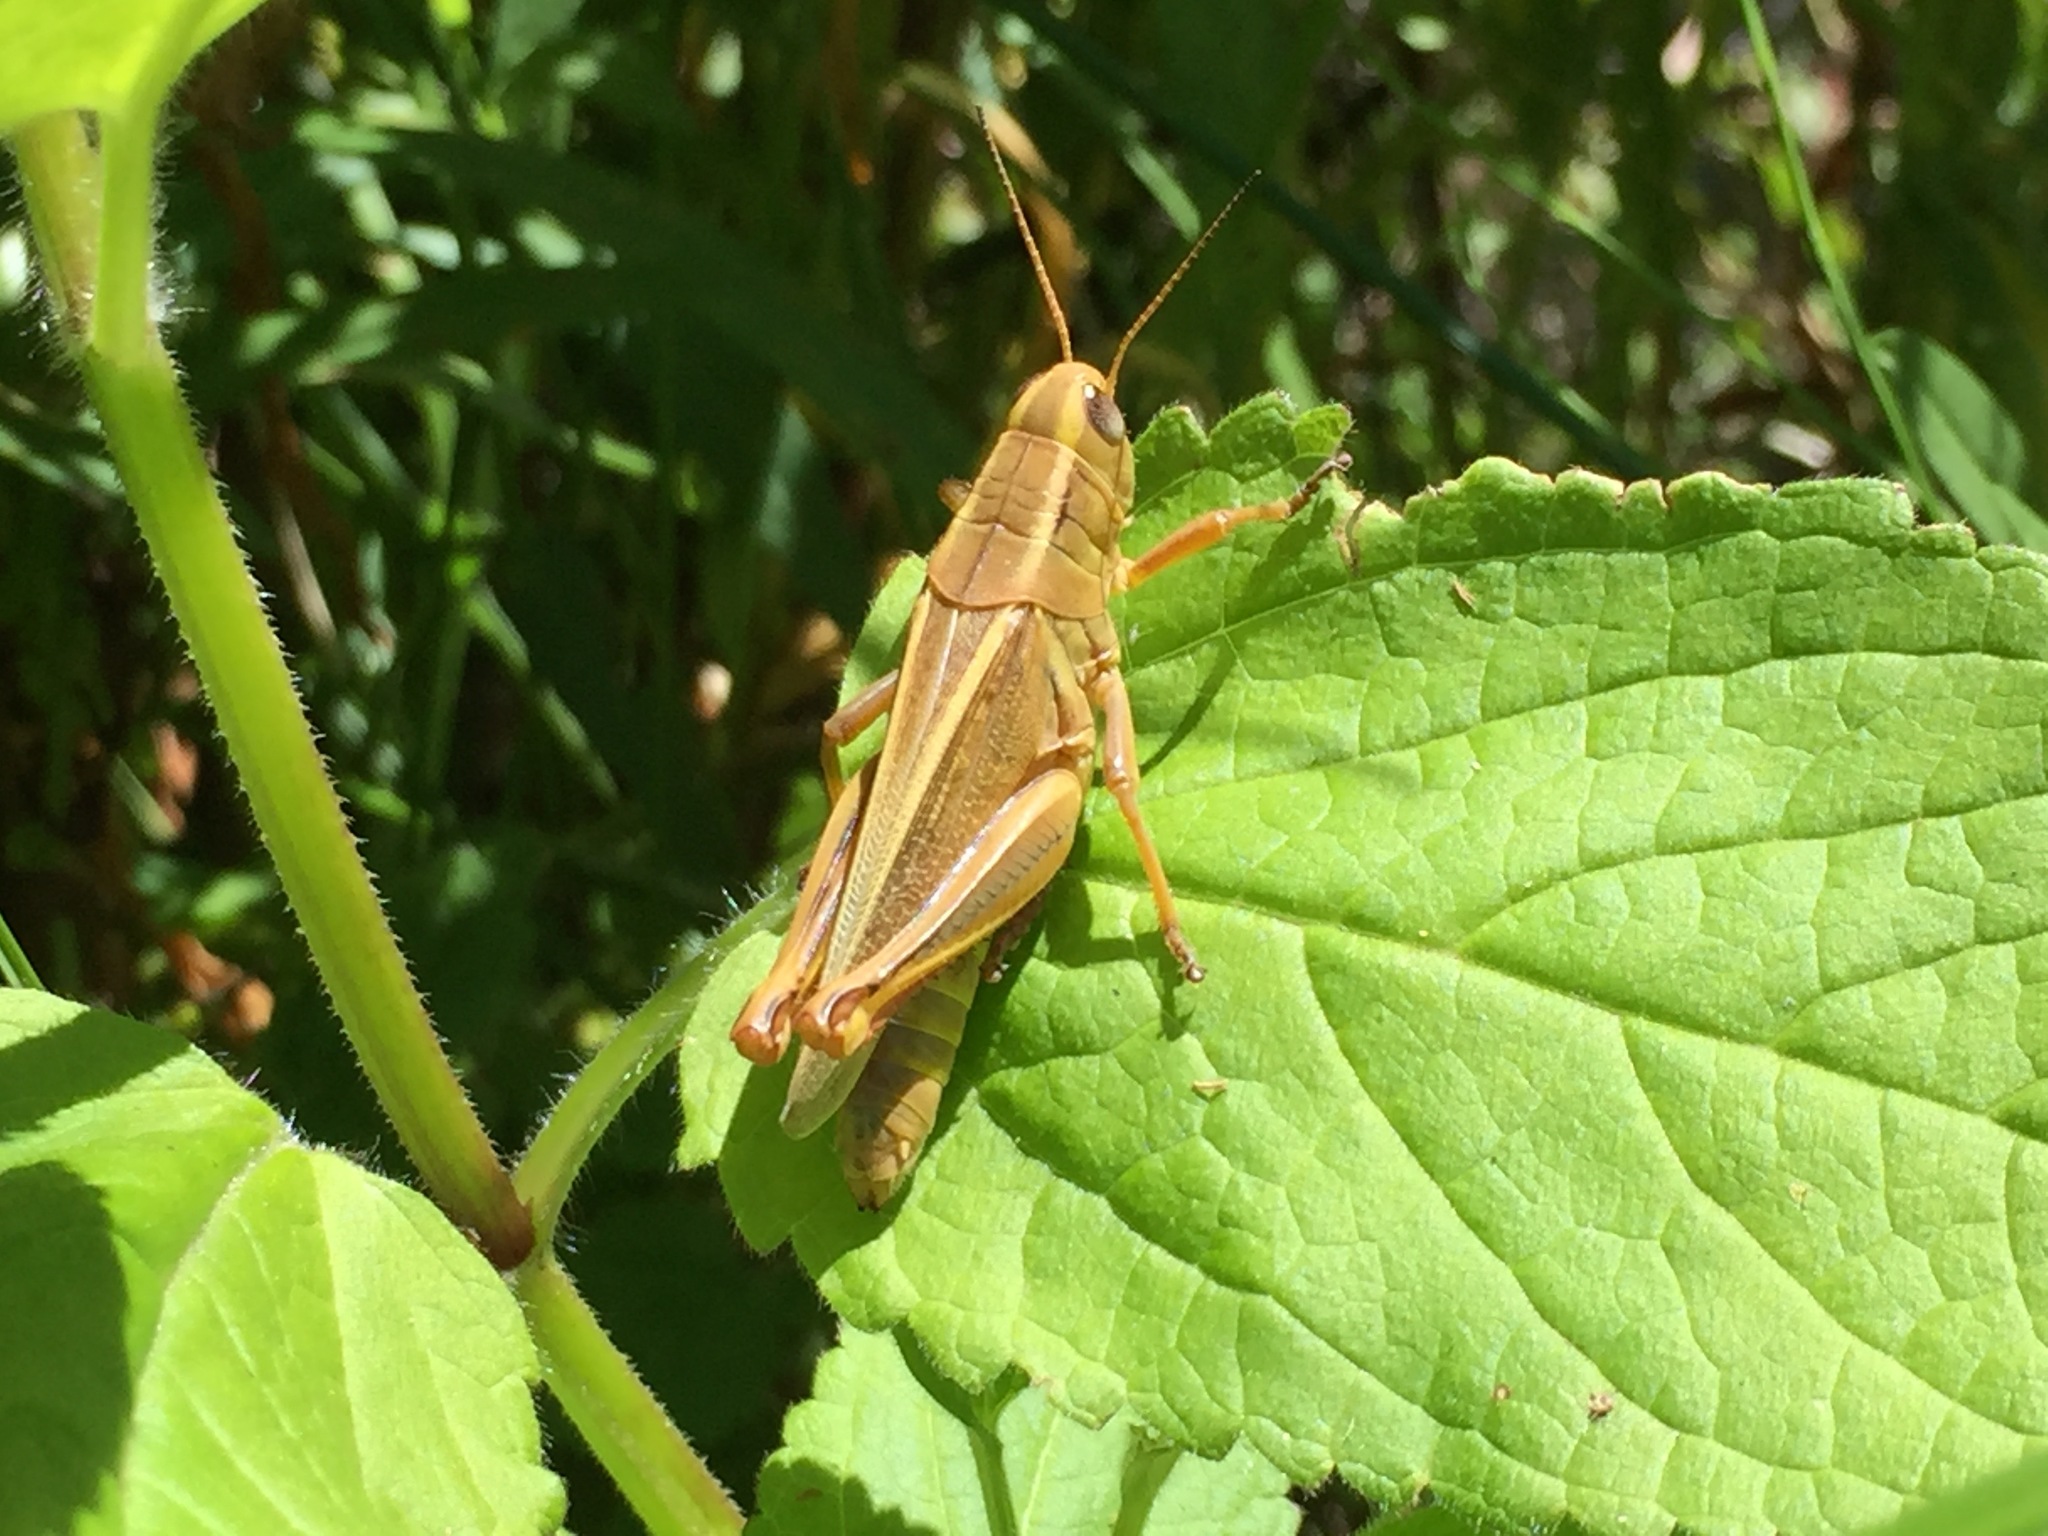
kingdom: Animalia
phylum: Arthropoda
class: Insecta
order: Orthoptera
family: Acrididae
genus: Melanoplus
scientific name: Melanoplus bivittatus
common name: Two-striped grasshopper
